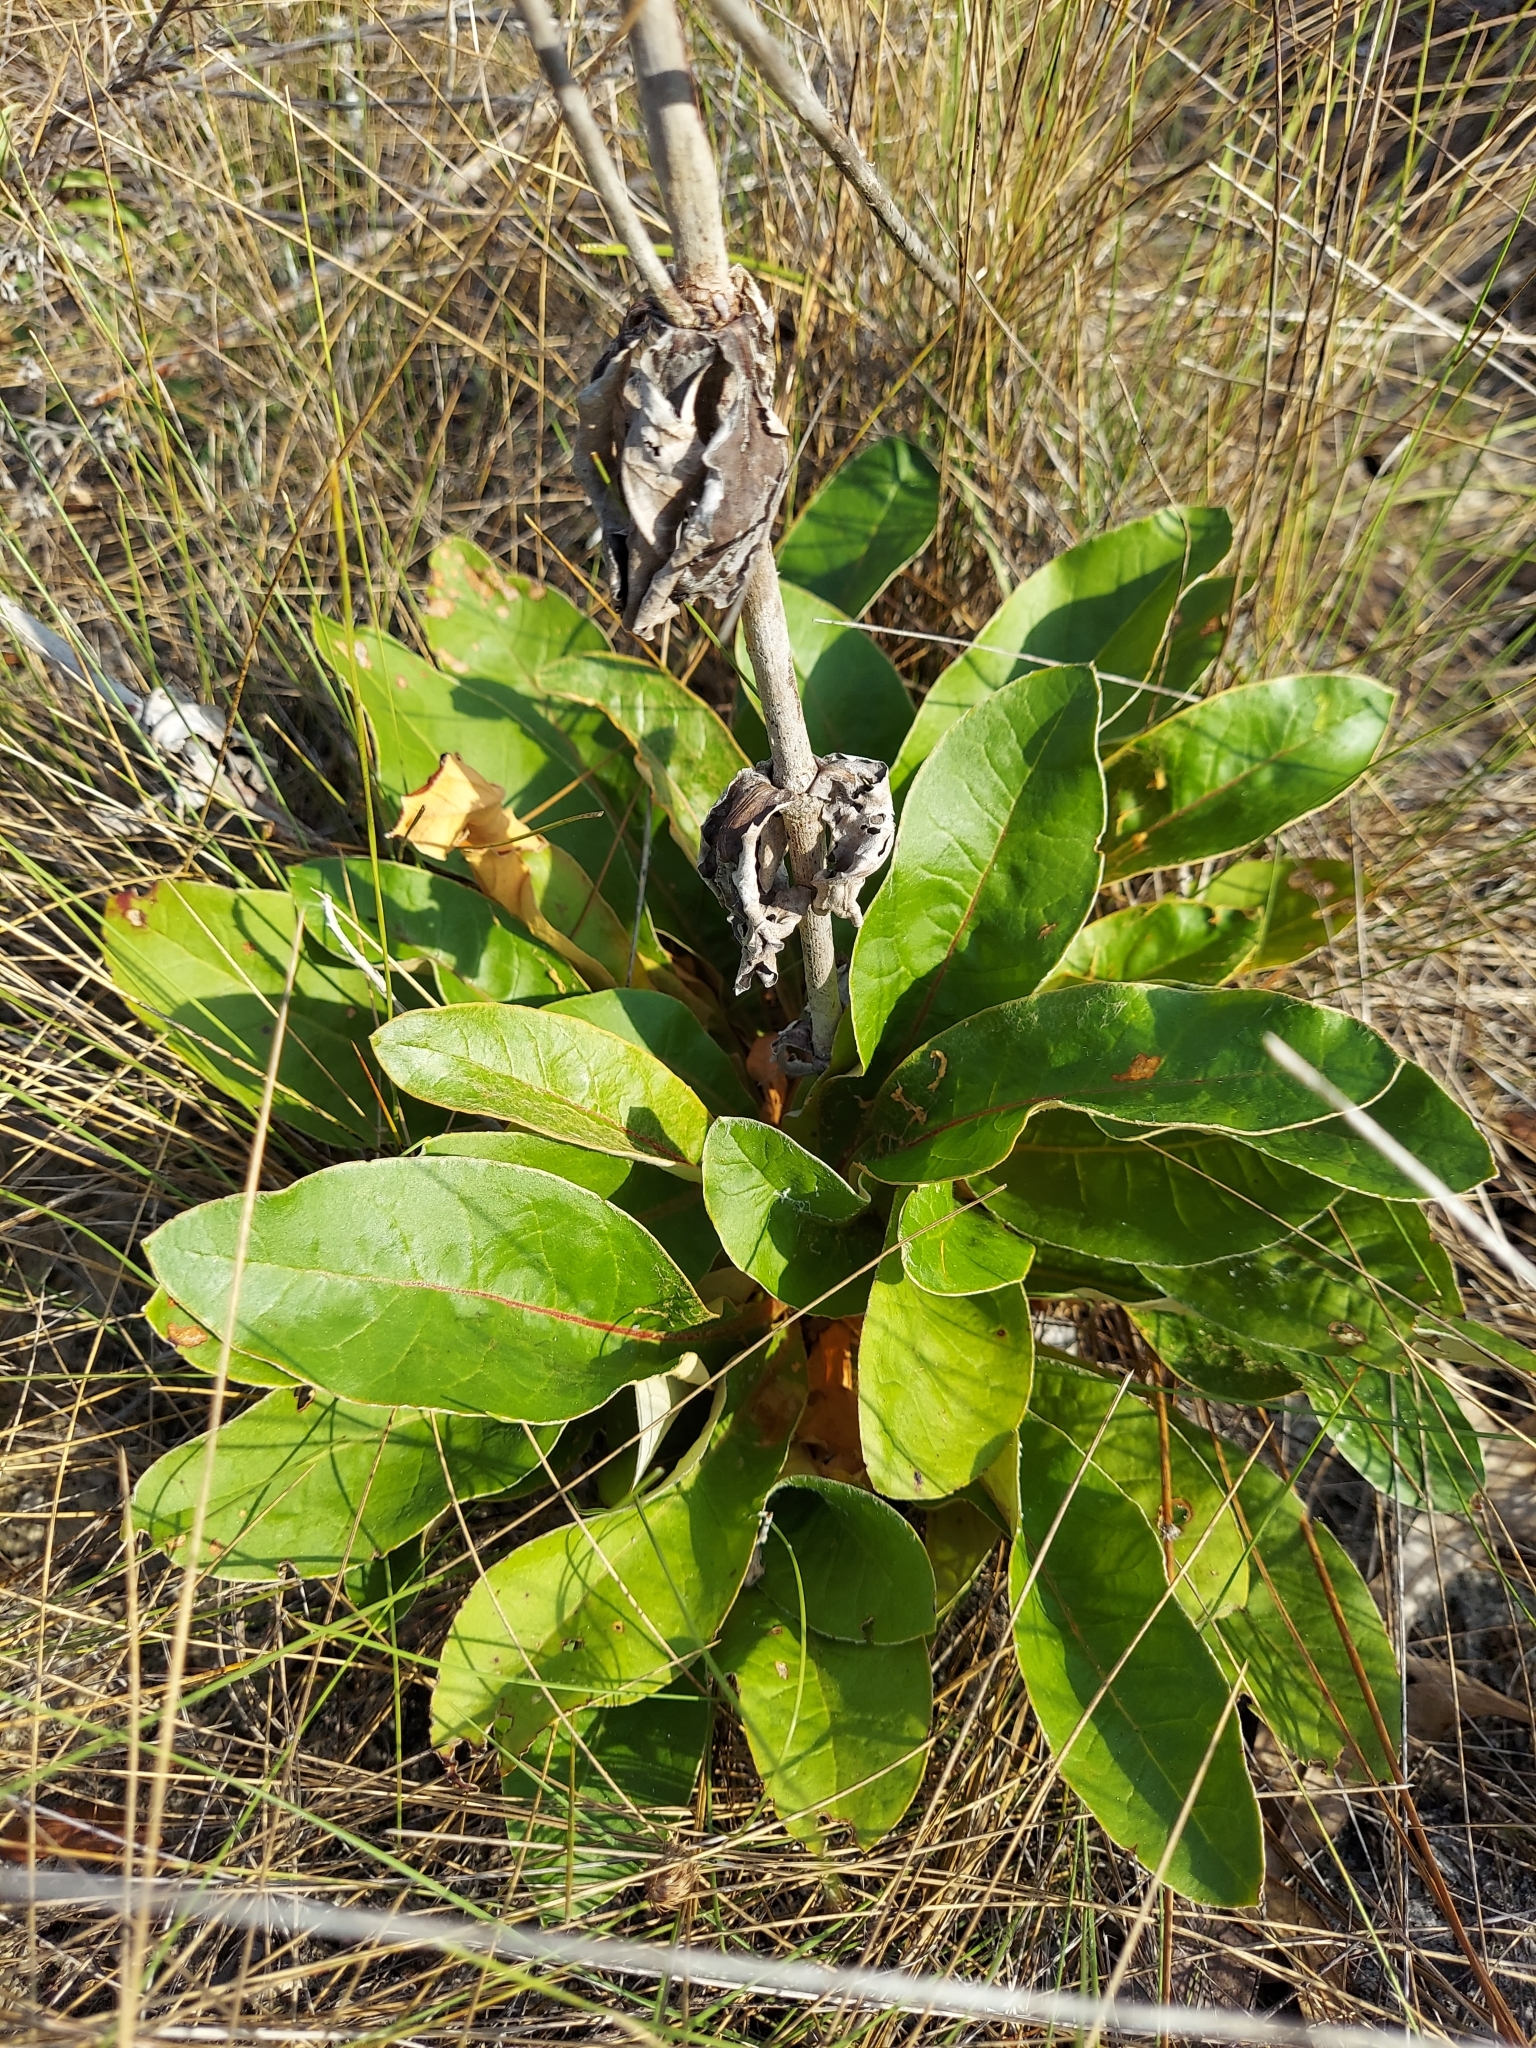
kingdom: Plantae
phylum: Tracheophyta
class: Magnoliopsida
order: Caryophyllales
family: Polygonaceae
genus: Eriogonum
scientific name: Eriogonum tomentosum
